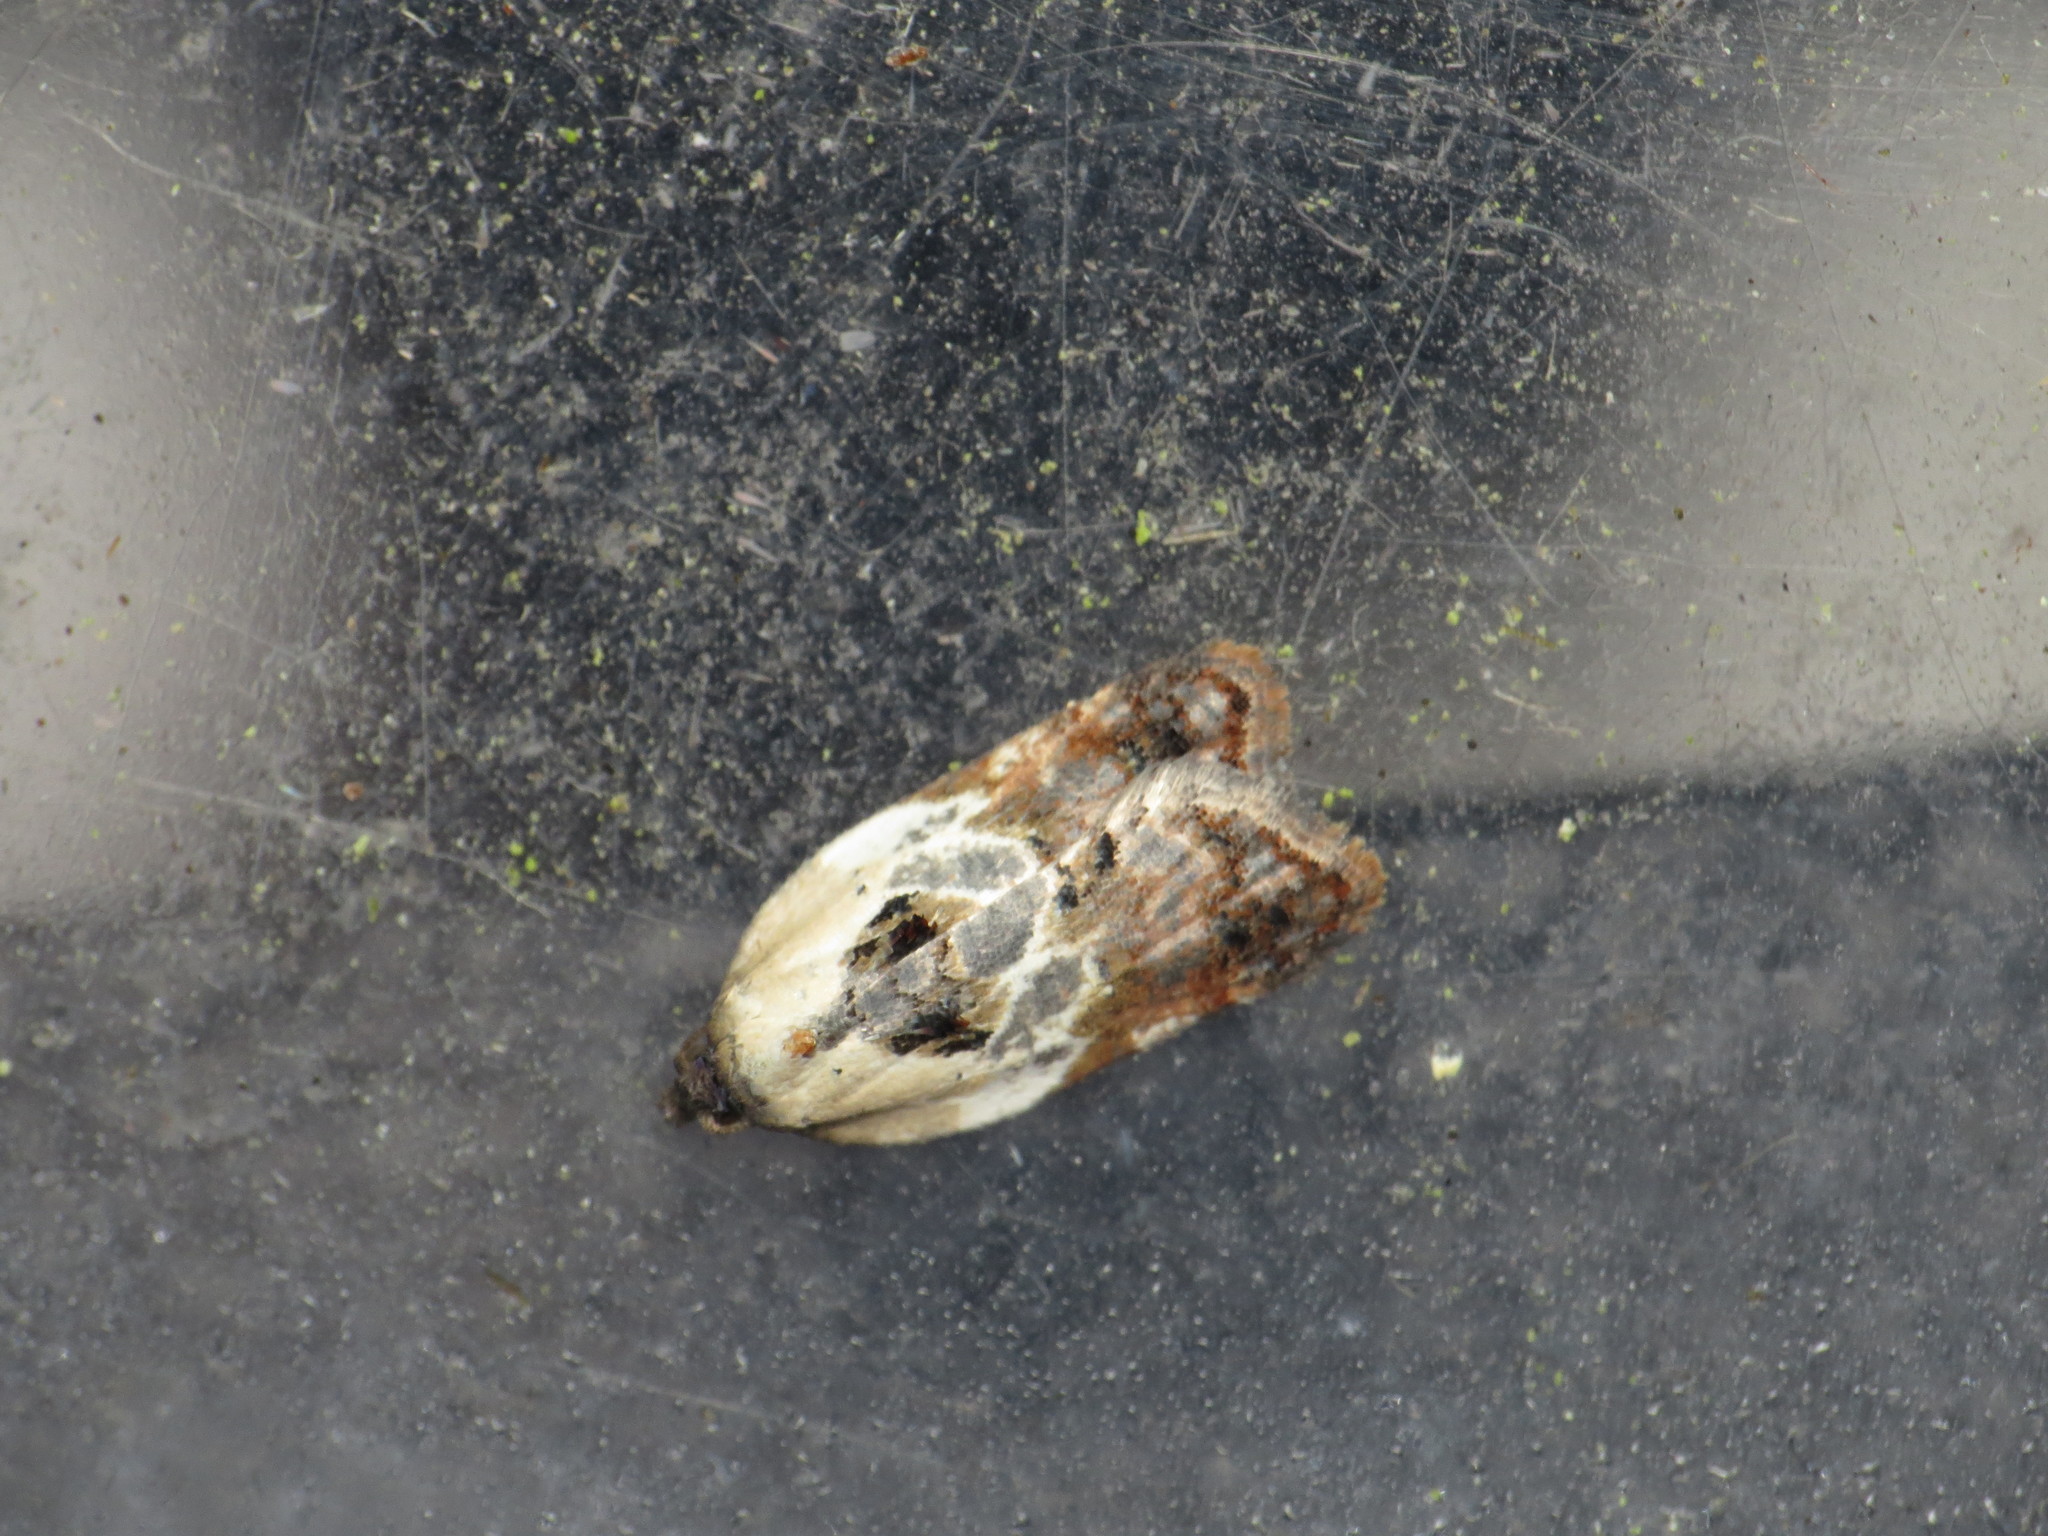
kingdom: Animalia
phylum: Arthropoda
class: Insecta
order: Lepidoptera
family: Tortricidae
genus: Acleris
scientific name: Acleris variegana
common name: Garden rose tortrix
